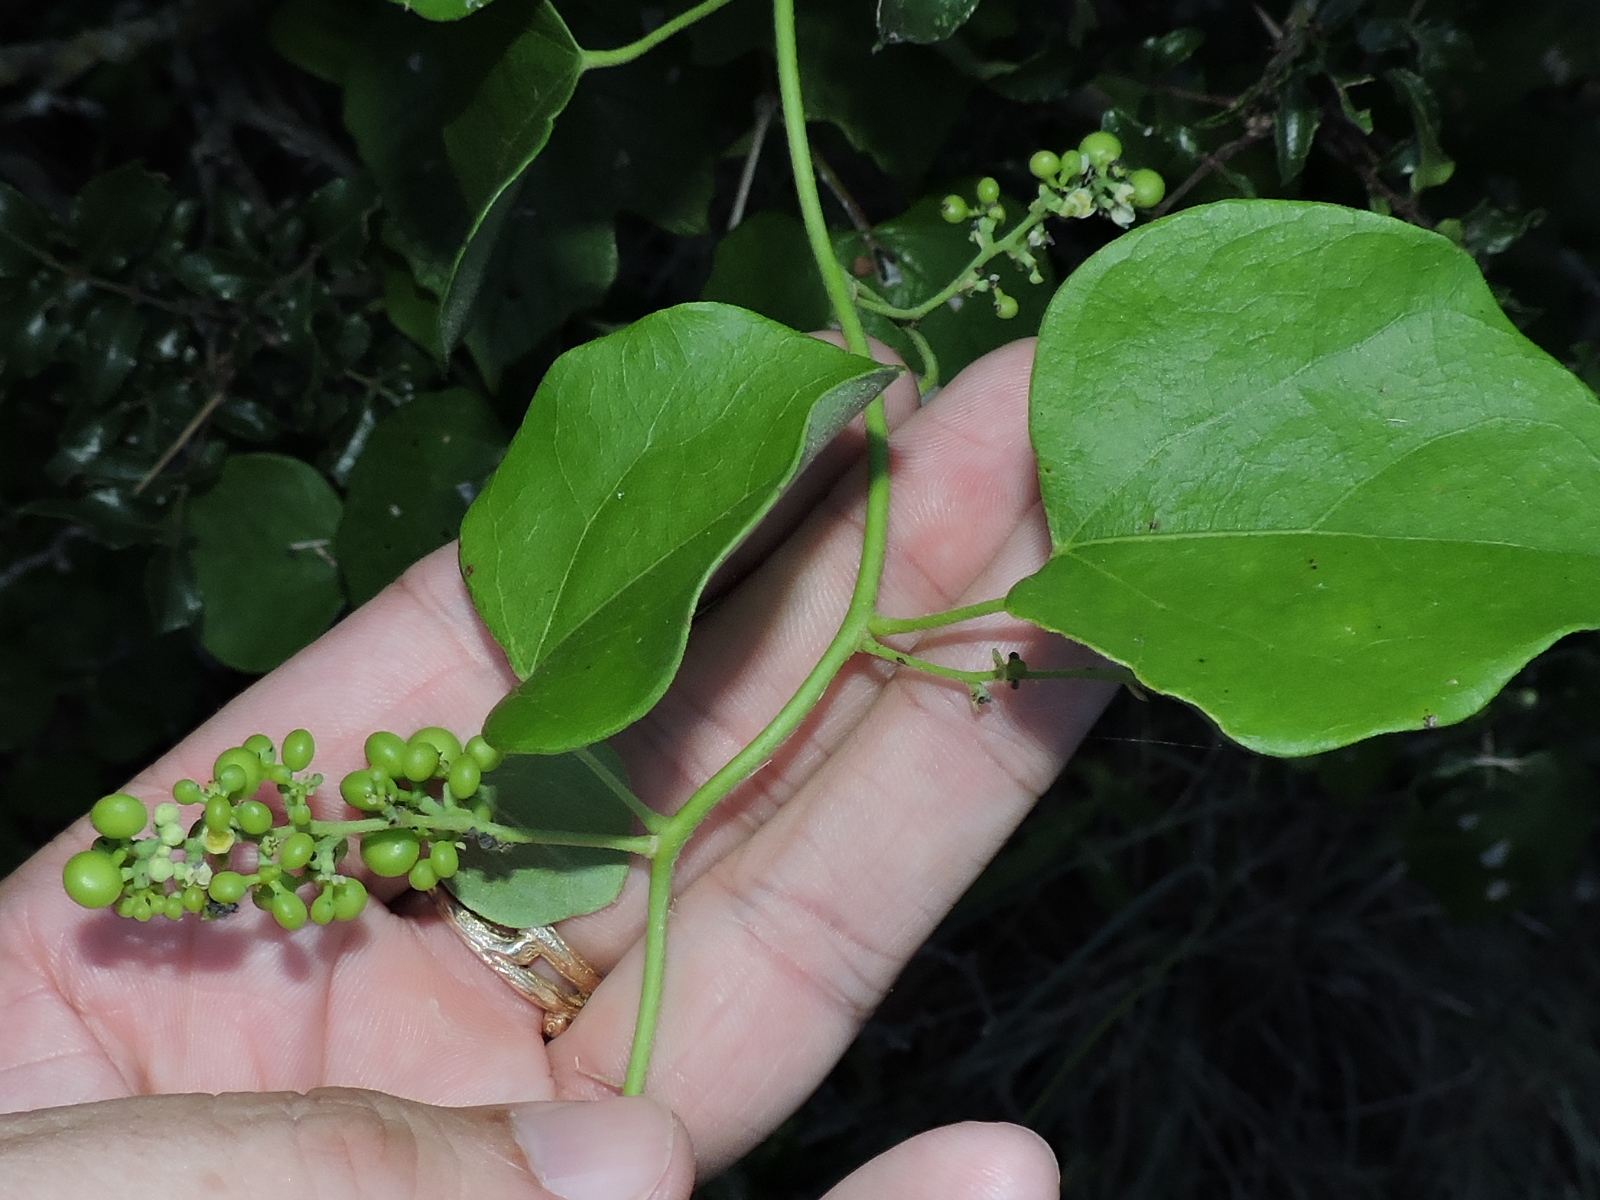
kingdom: Plantae
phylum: Tracheophyta
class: Magnoliopsida
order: Ranunculales
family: Menispermaceae
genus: Cocculus
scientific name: Cocculus carolinus
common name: Carolina moonseed
